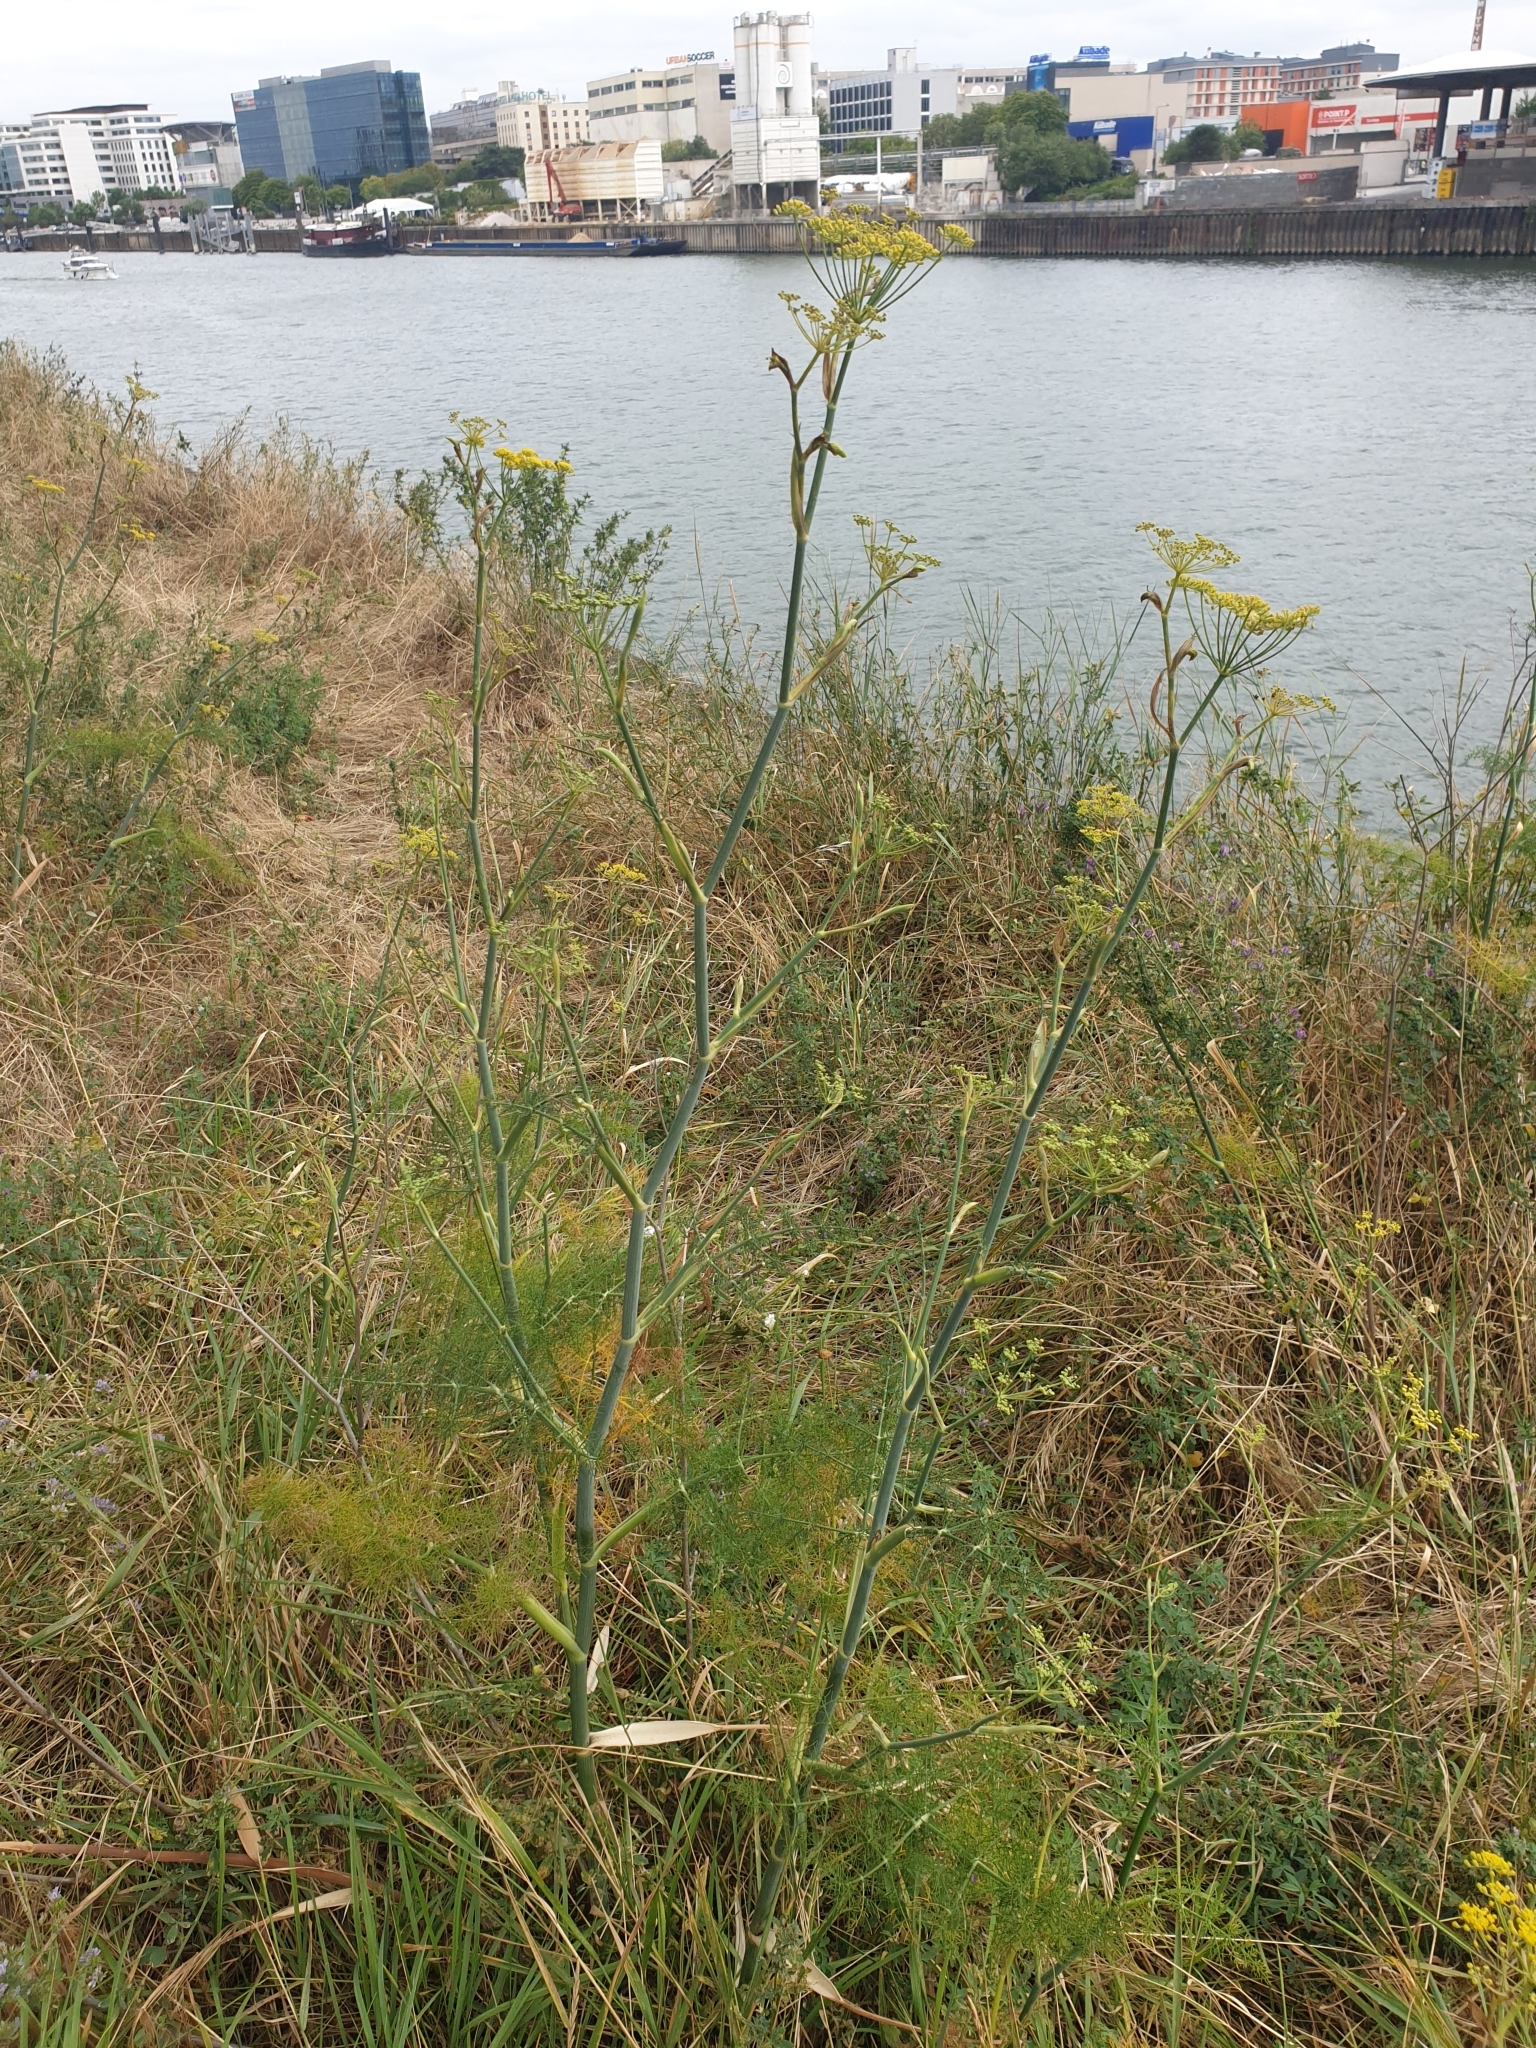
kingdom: Plantae
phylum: Tracheophyta
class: Magnoliopsida
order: Apiales
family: Apiaceae
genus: Foeniculum
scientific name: Foeniculum vulgare
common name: Fennel
